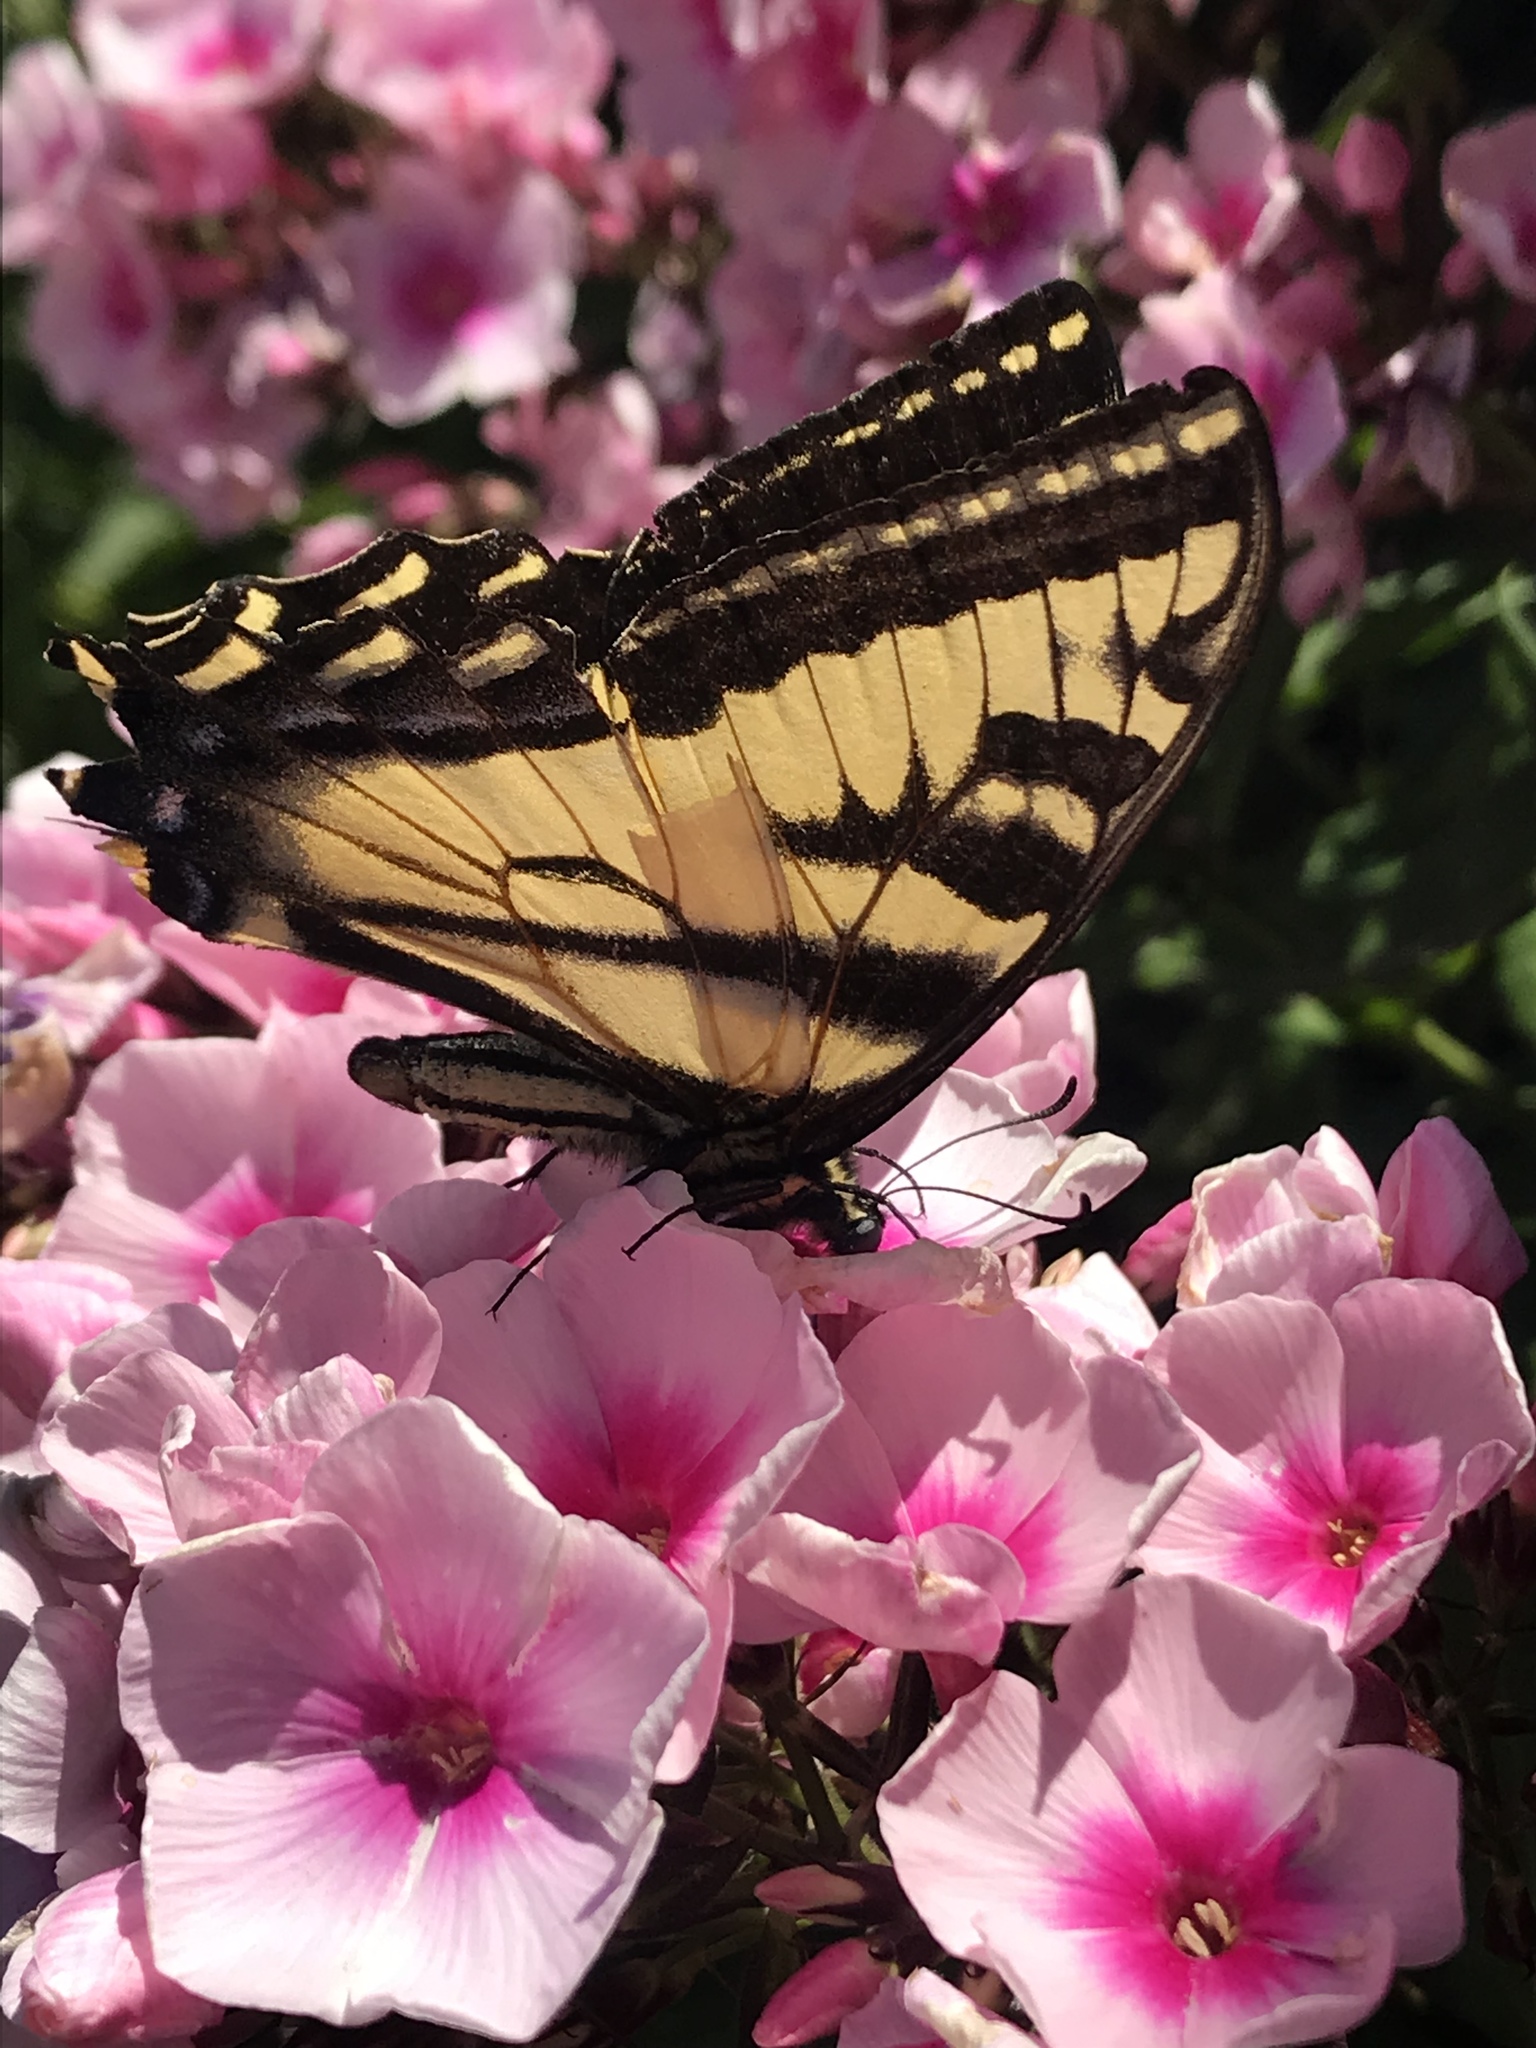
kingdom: Animalia
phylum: Arthropoda
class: Insecta
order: Lepidoptera
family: Papilionidae
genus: Papilio
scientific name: Papilio rutulus
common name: Western tiger swallowtail
